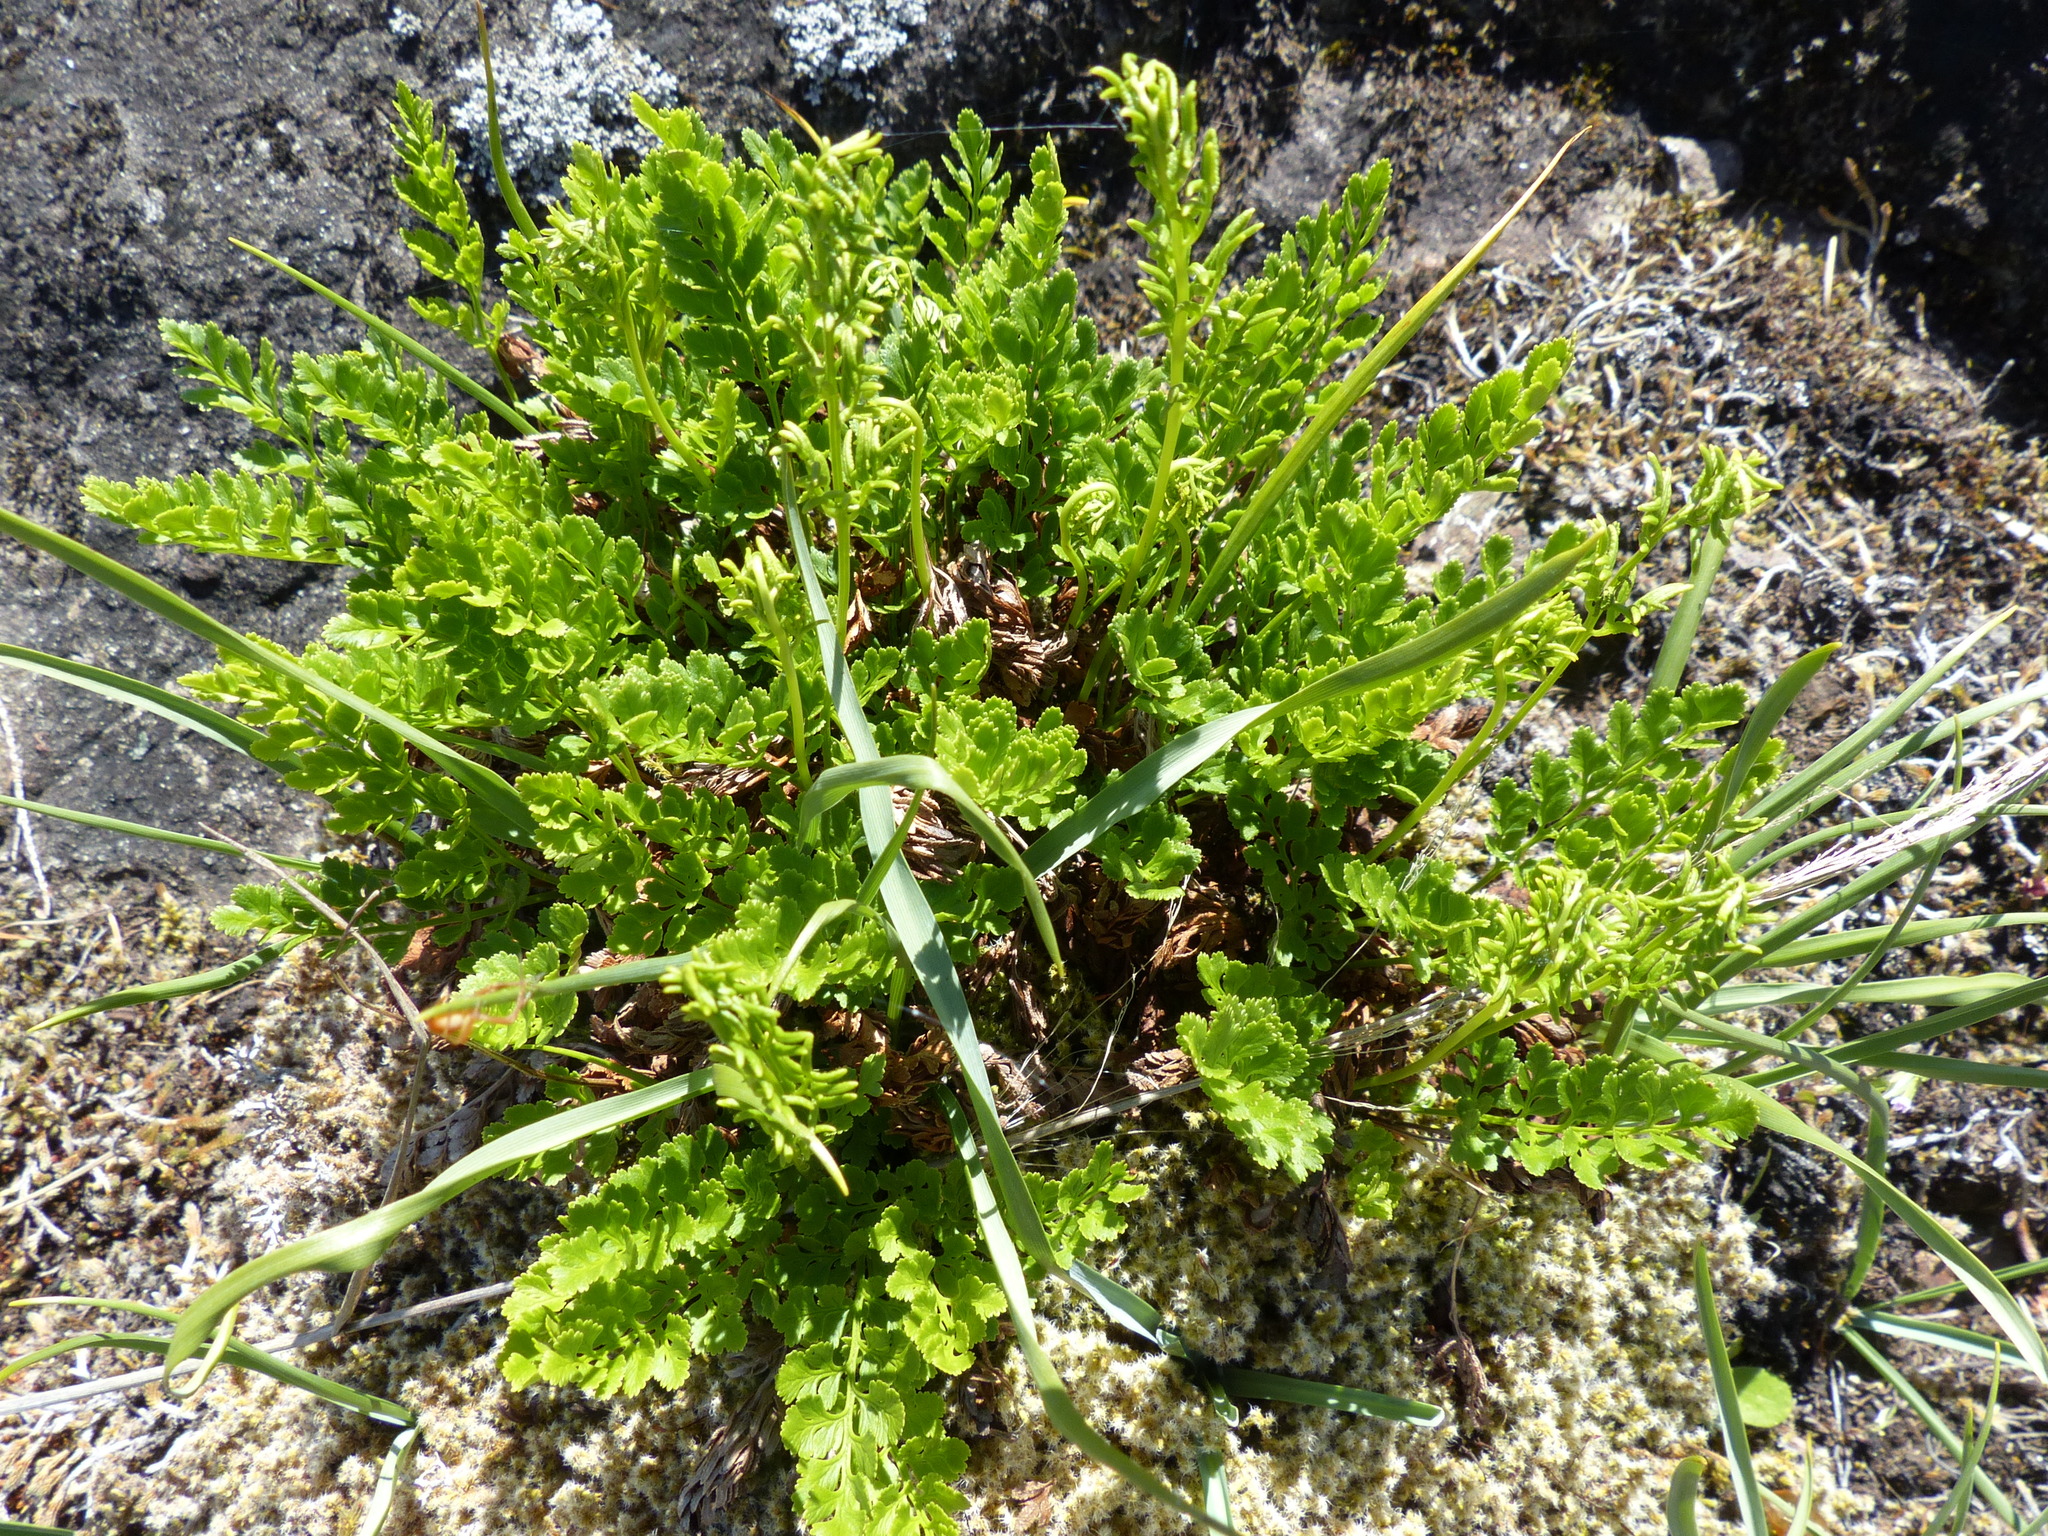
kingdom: Plantae
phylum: Tracheophyta
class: Polypodiopsida
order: Polypodiales
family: Pteridaceae
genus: Cryptogramma
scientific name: Cryptogramma acrostichoides
